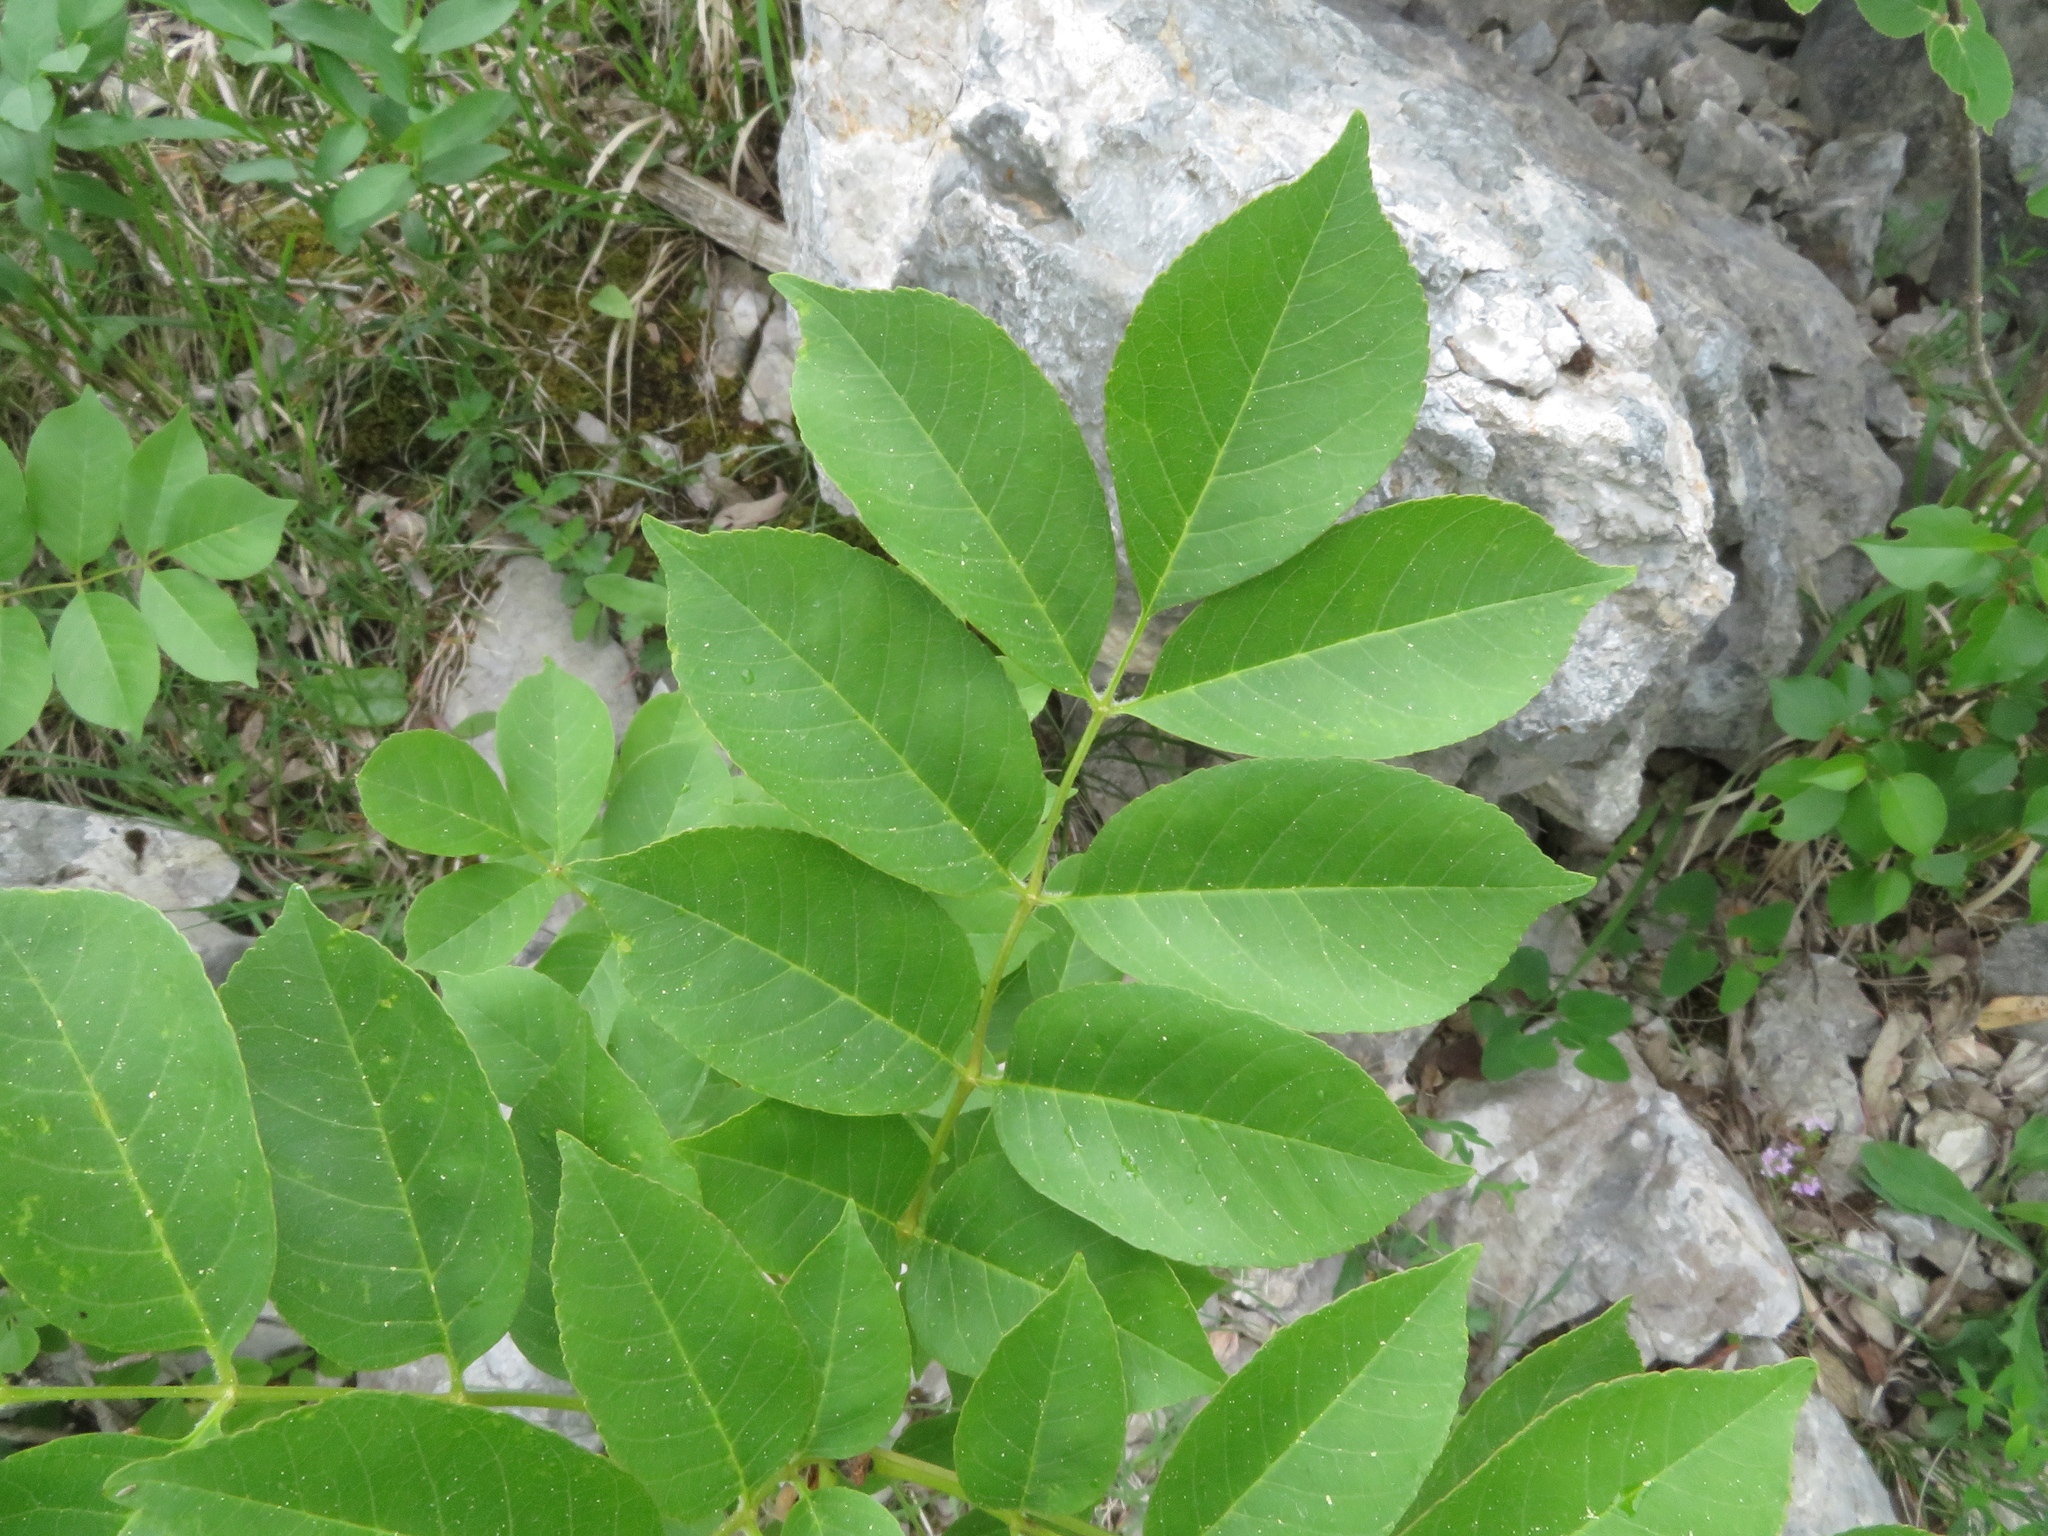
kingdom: Plantae
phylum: Tracheophyta
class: Magnoliopsida
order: Lamiales
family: Oleaceae
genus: Fraxinus
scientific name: Fraxinus ornus
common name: Manna ash
